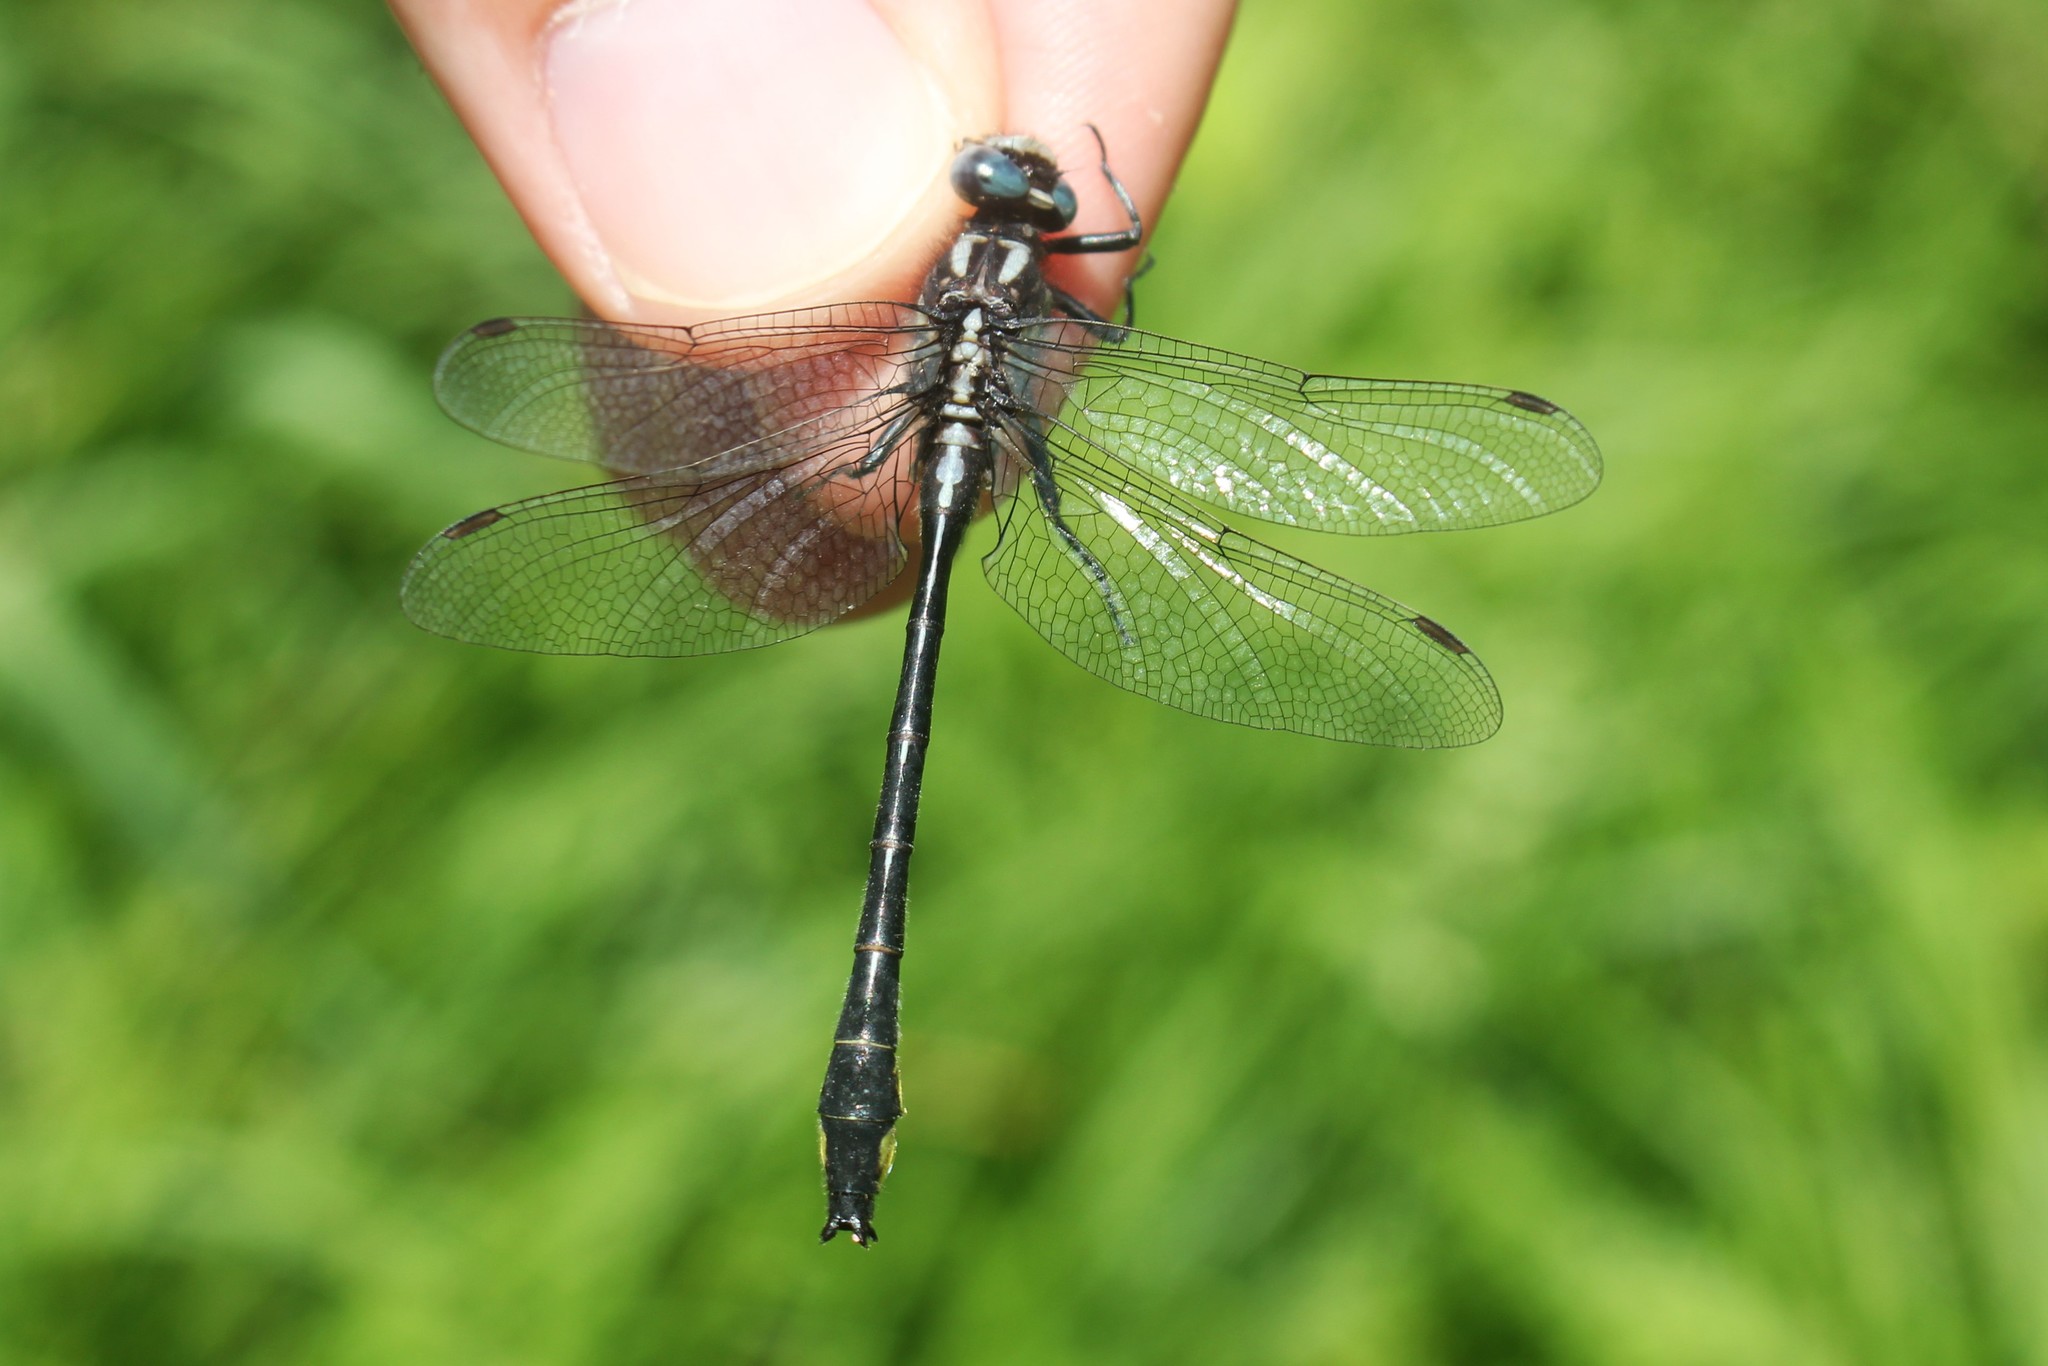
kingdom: Animalia
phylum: Arthropoda
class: Insecta
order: Odonata
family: Gomphidae
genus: Phanogomphus
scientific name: Phanogomphus quadricolor
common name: Rapids clubtail
